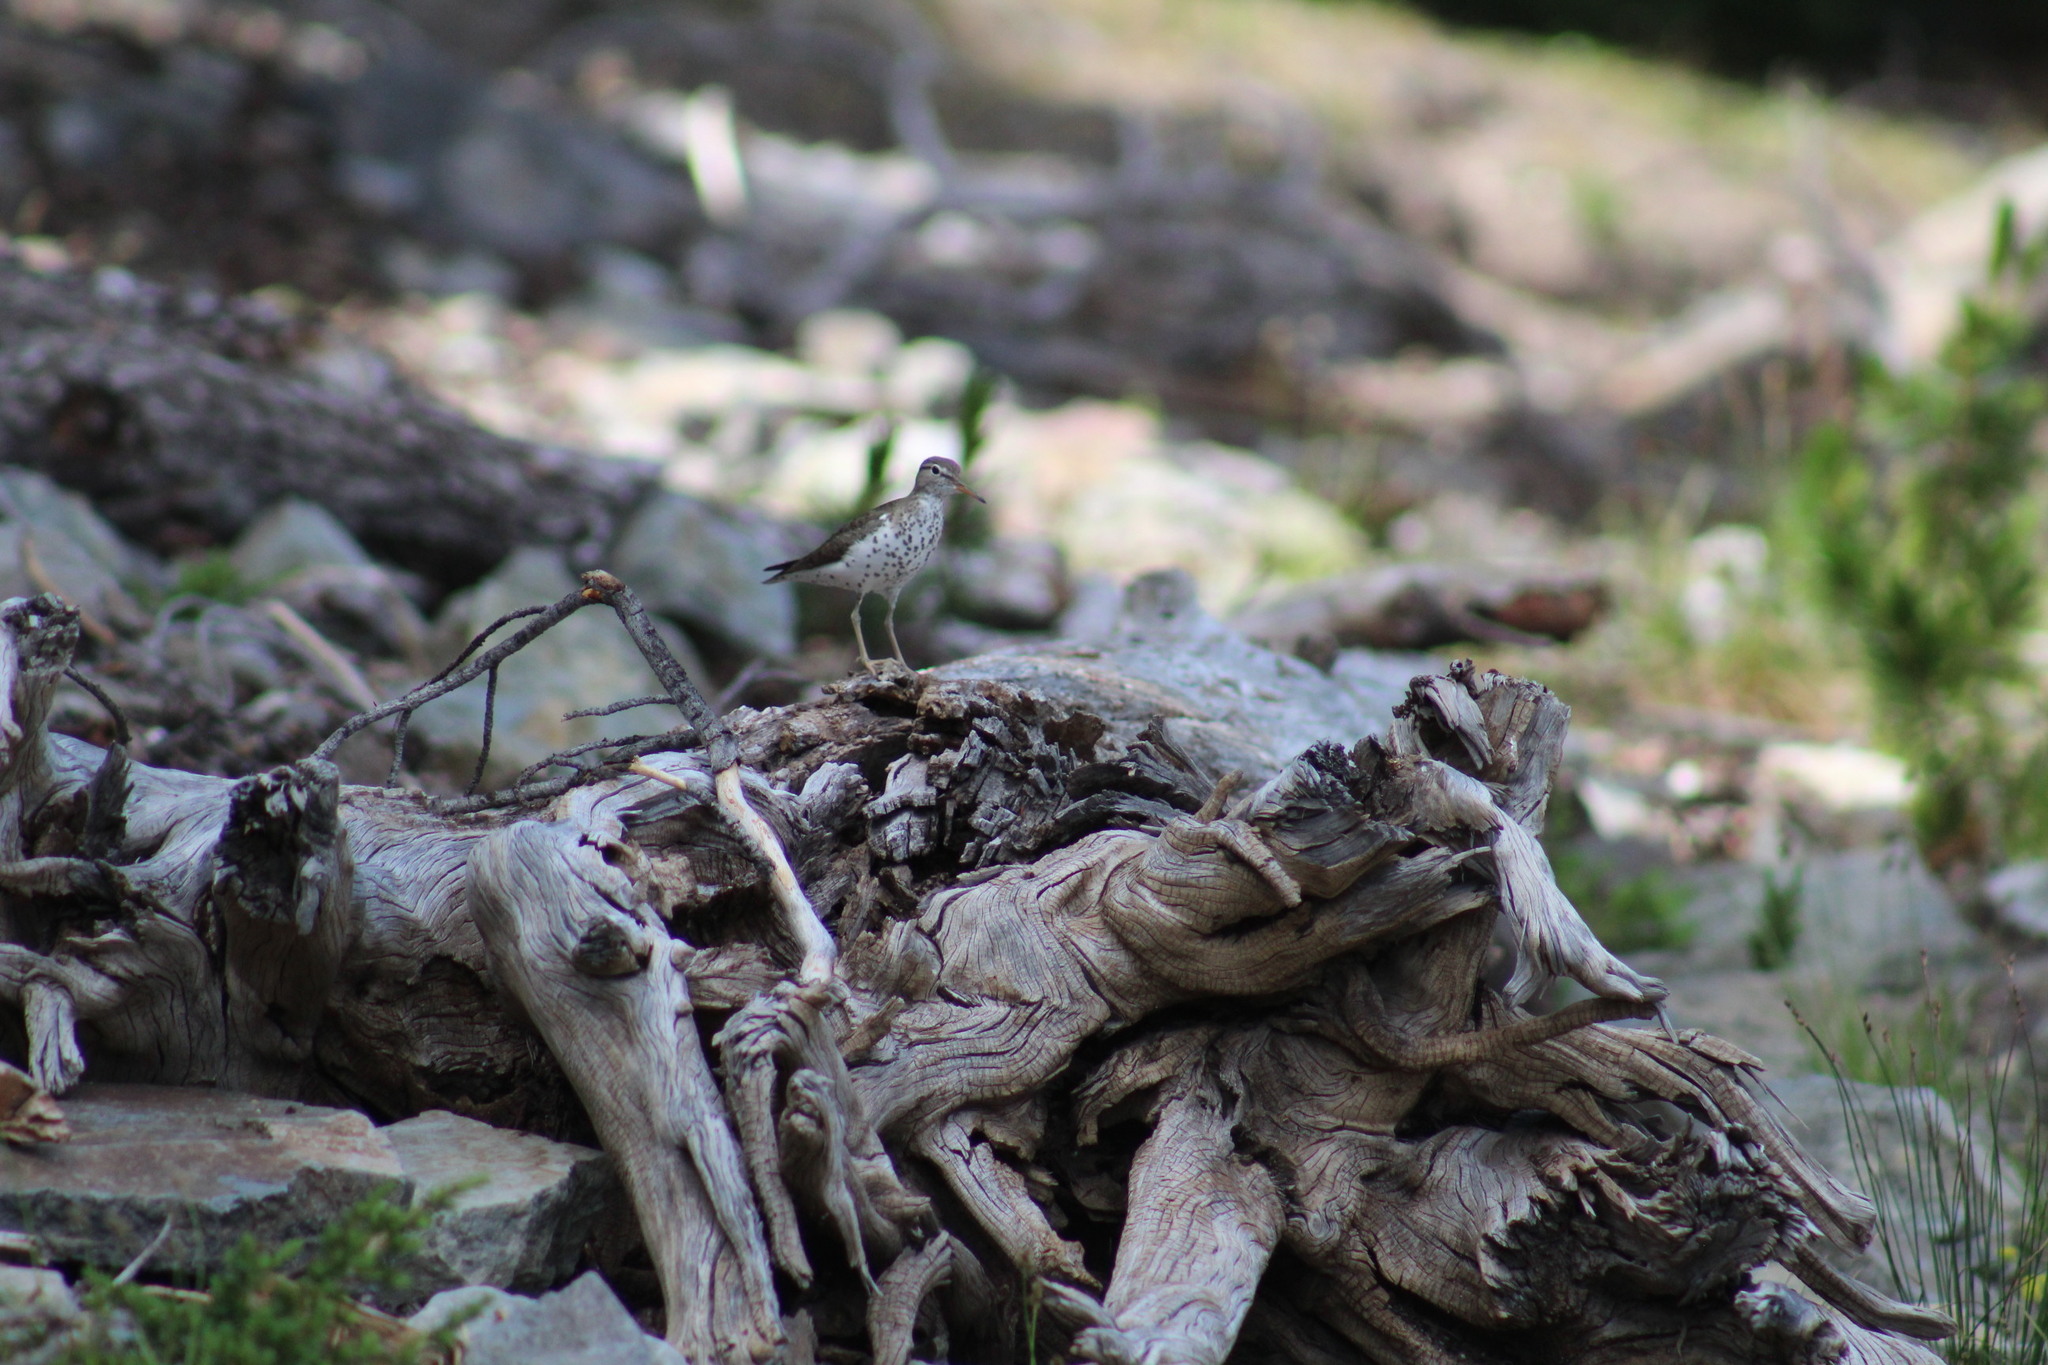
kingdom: Animalia
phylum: Chordata
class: Aves
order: Charadriiformes
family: Scolopacidae
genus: Actitis
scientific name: Actitis macularius
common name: Spotted sandpiper
